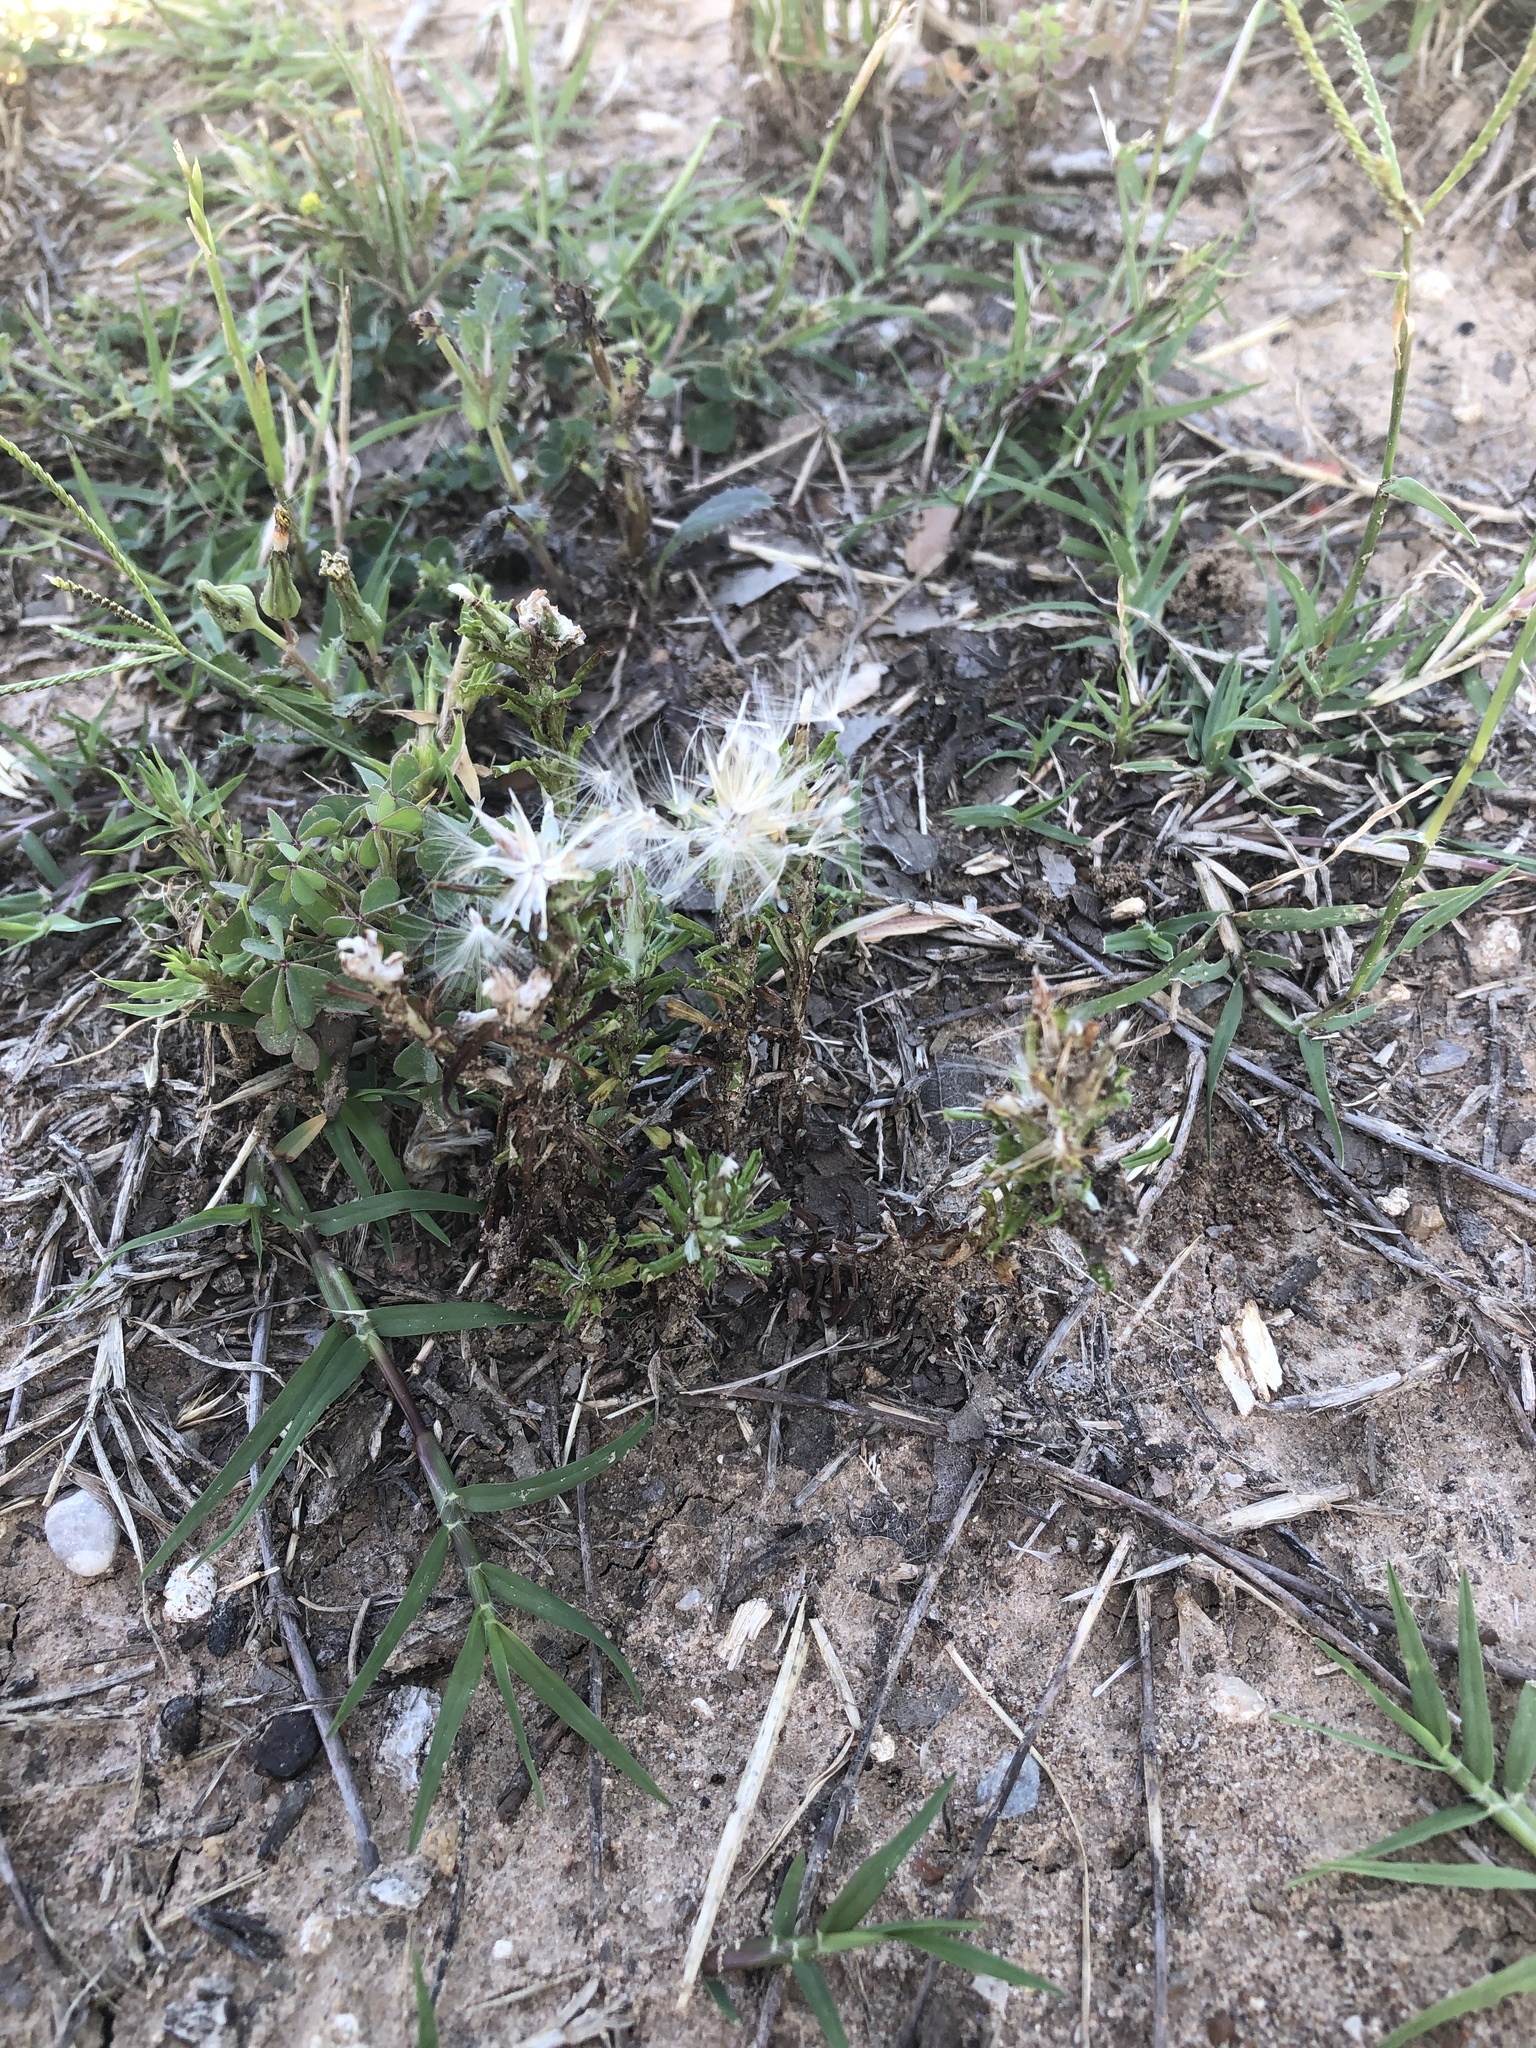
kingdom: Plantae
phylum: Tracheophyta
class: Magnoliopsida
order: Asterales
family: Asteraceae
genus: Facelis
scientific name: Facelis retusa
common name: Annual trampweed
